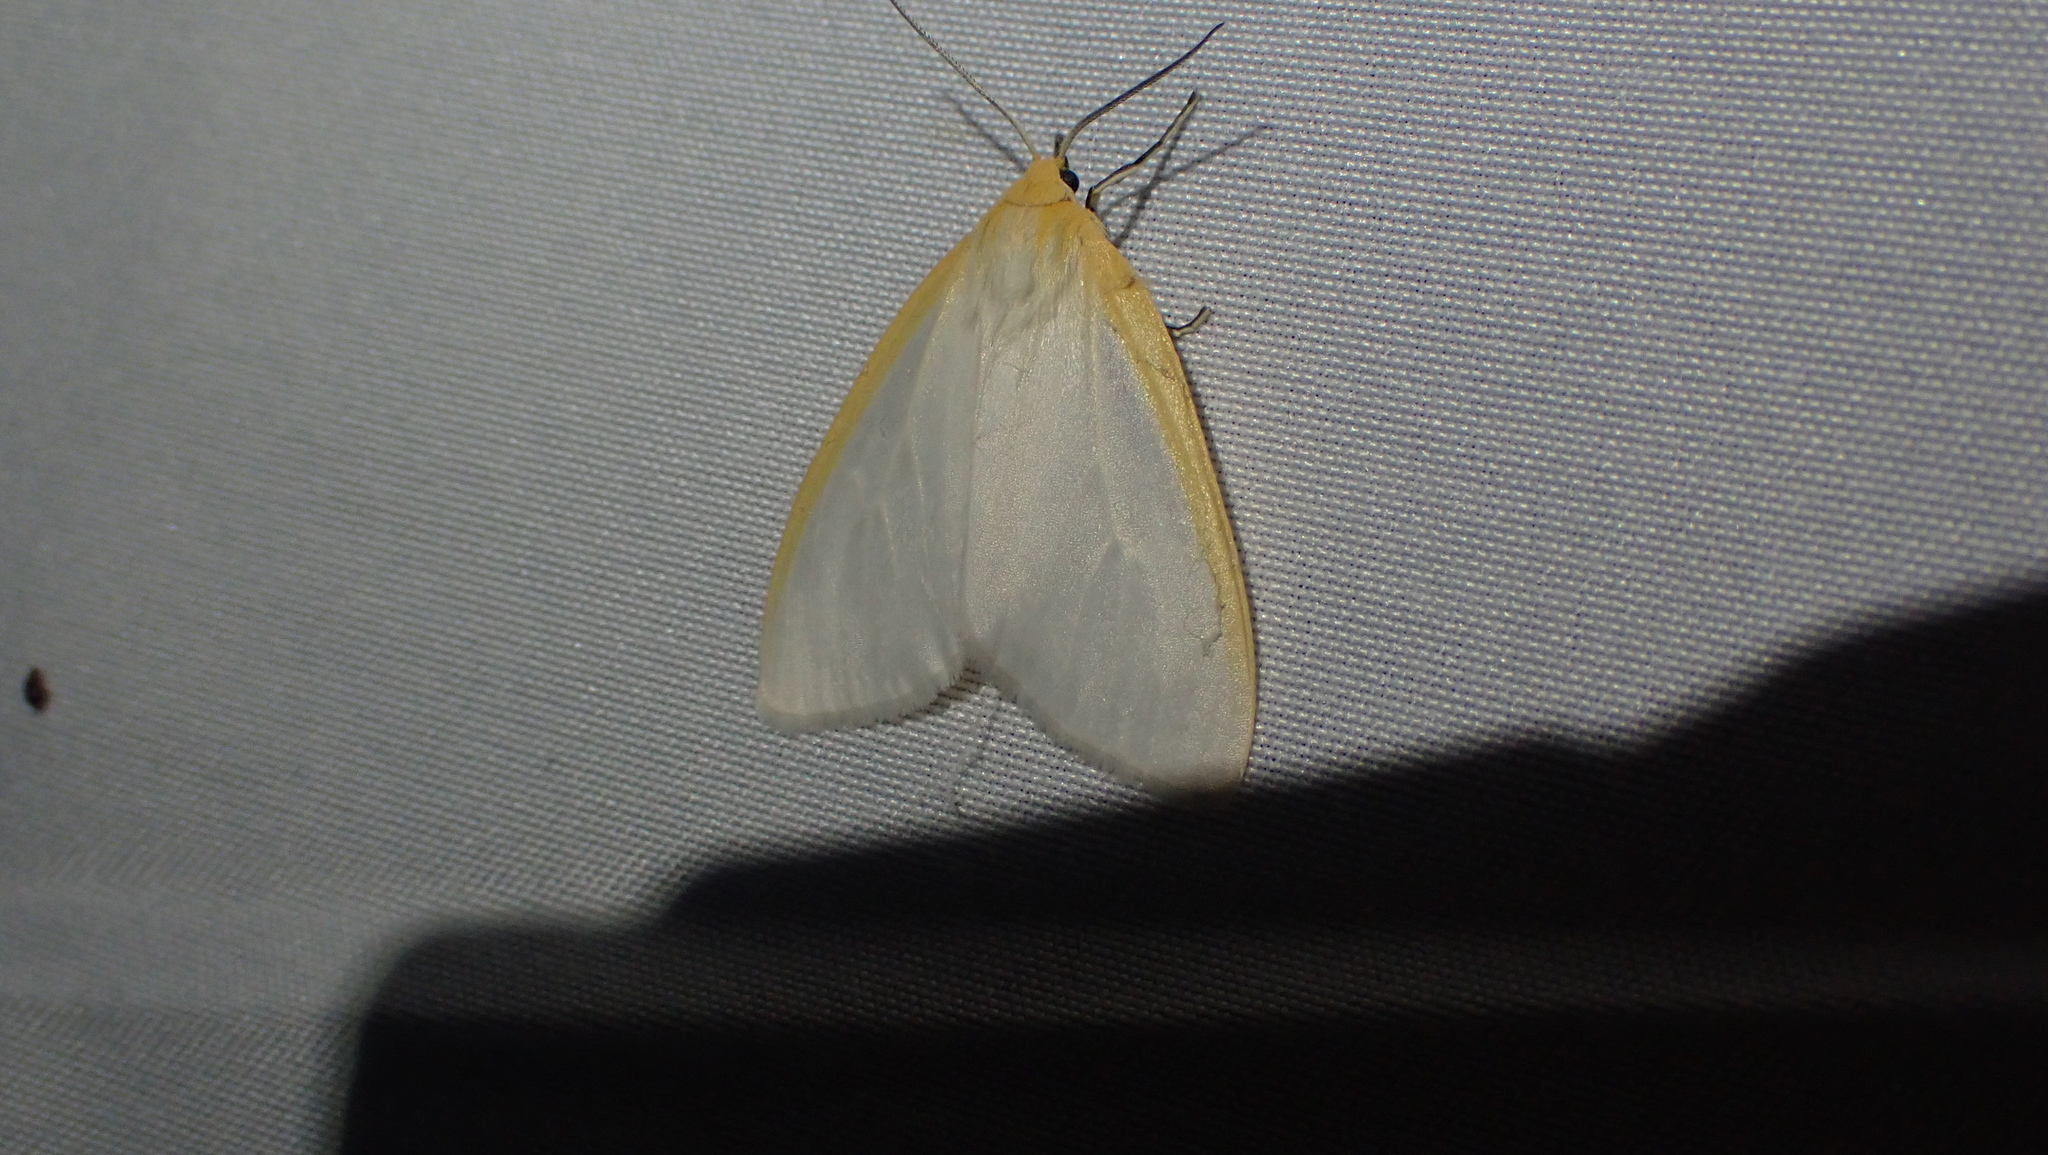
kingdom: Animalia
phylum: Arthropoda
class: Insecta
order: Lepidoptera
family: Erebidae
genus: Cycnia
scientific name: Cycnia tenera
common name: Delicate cycnia moth
